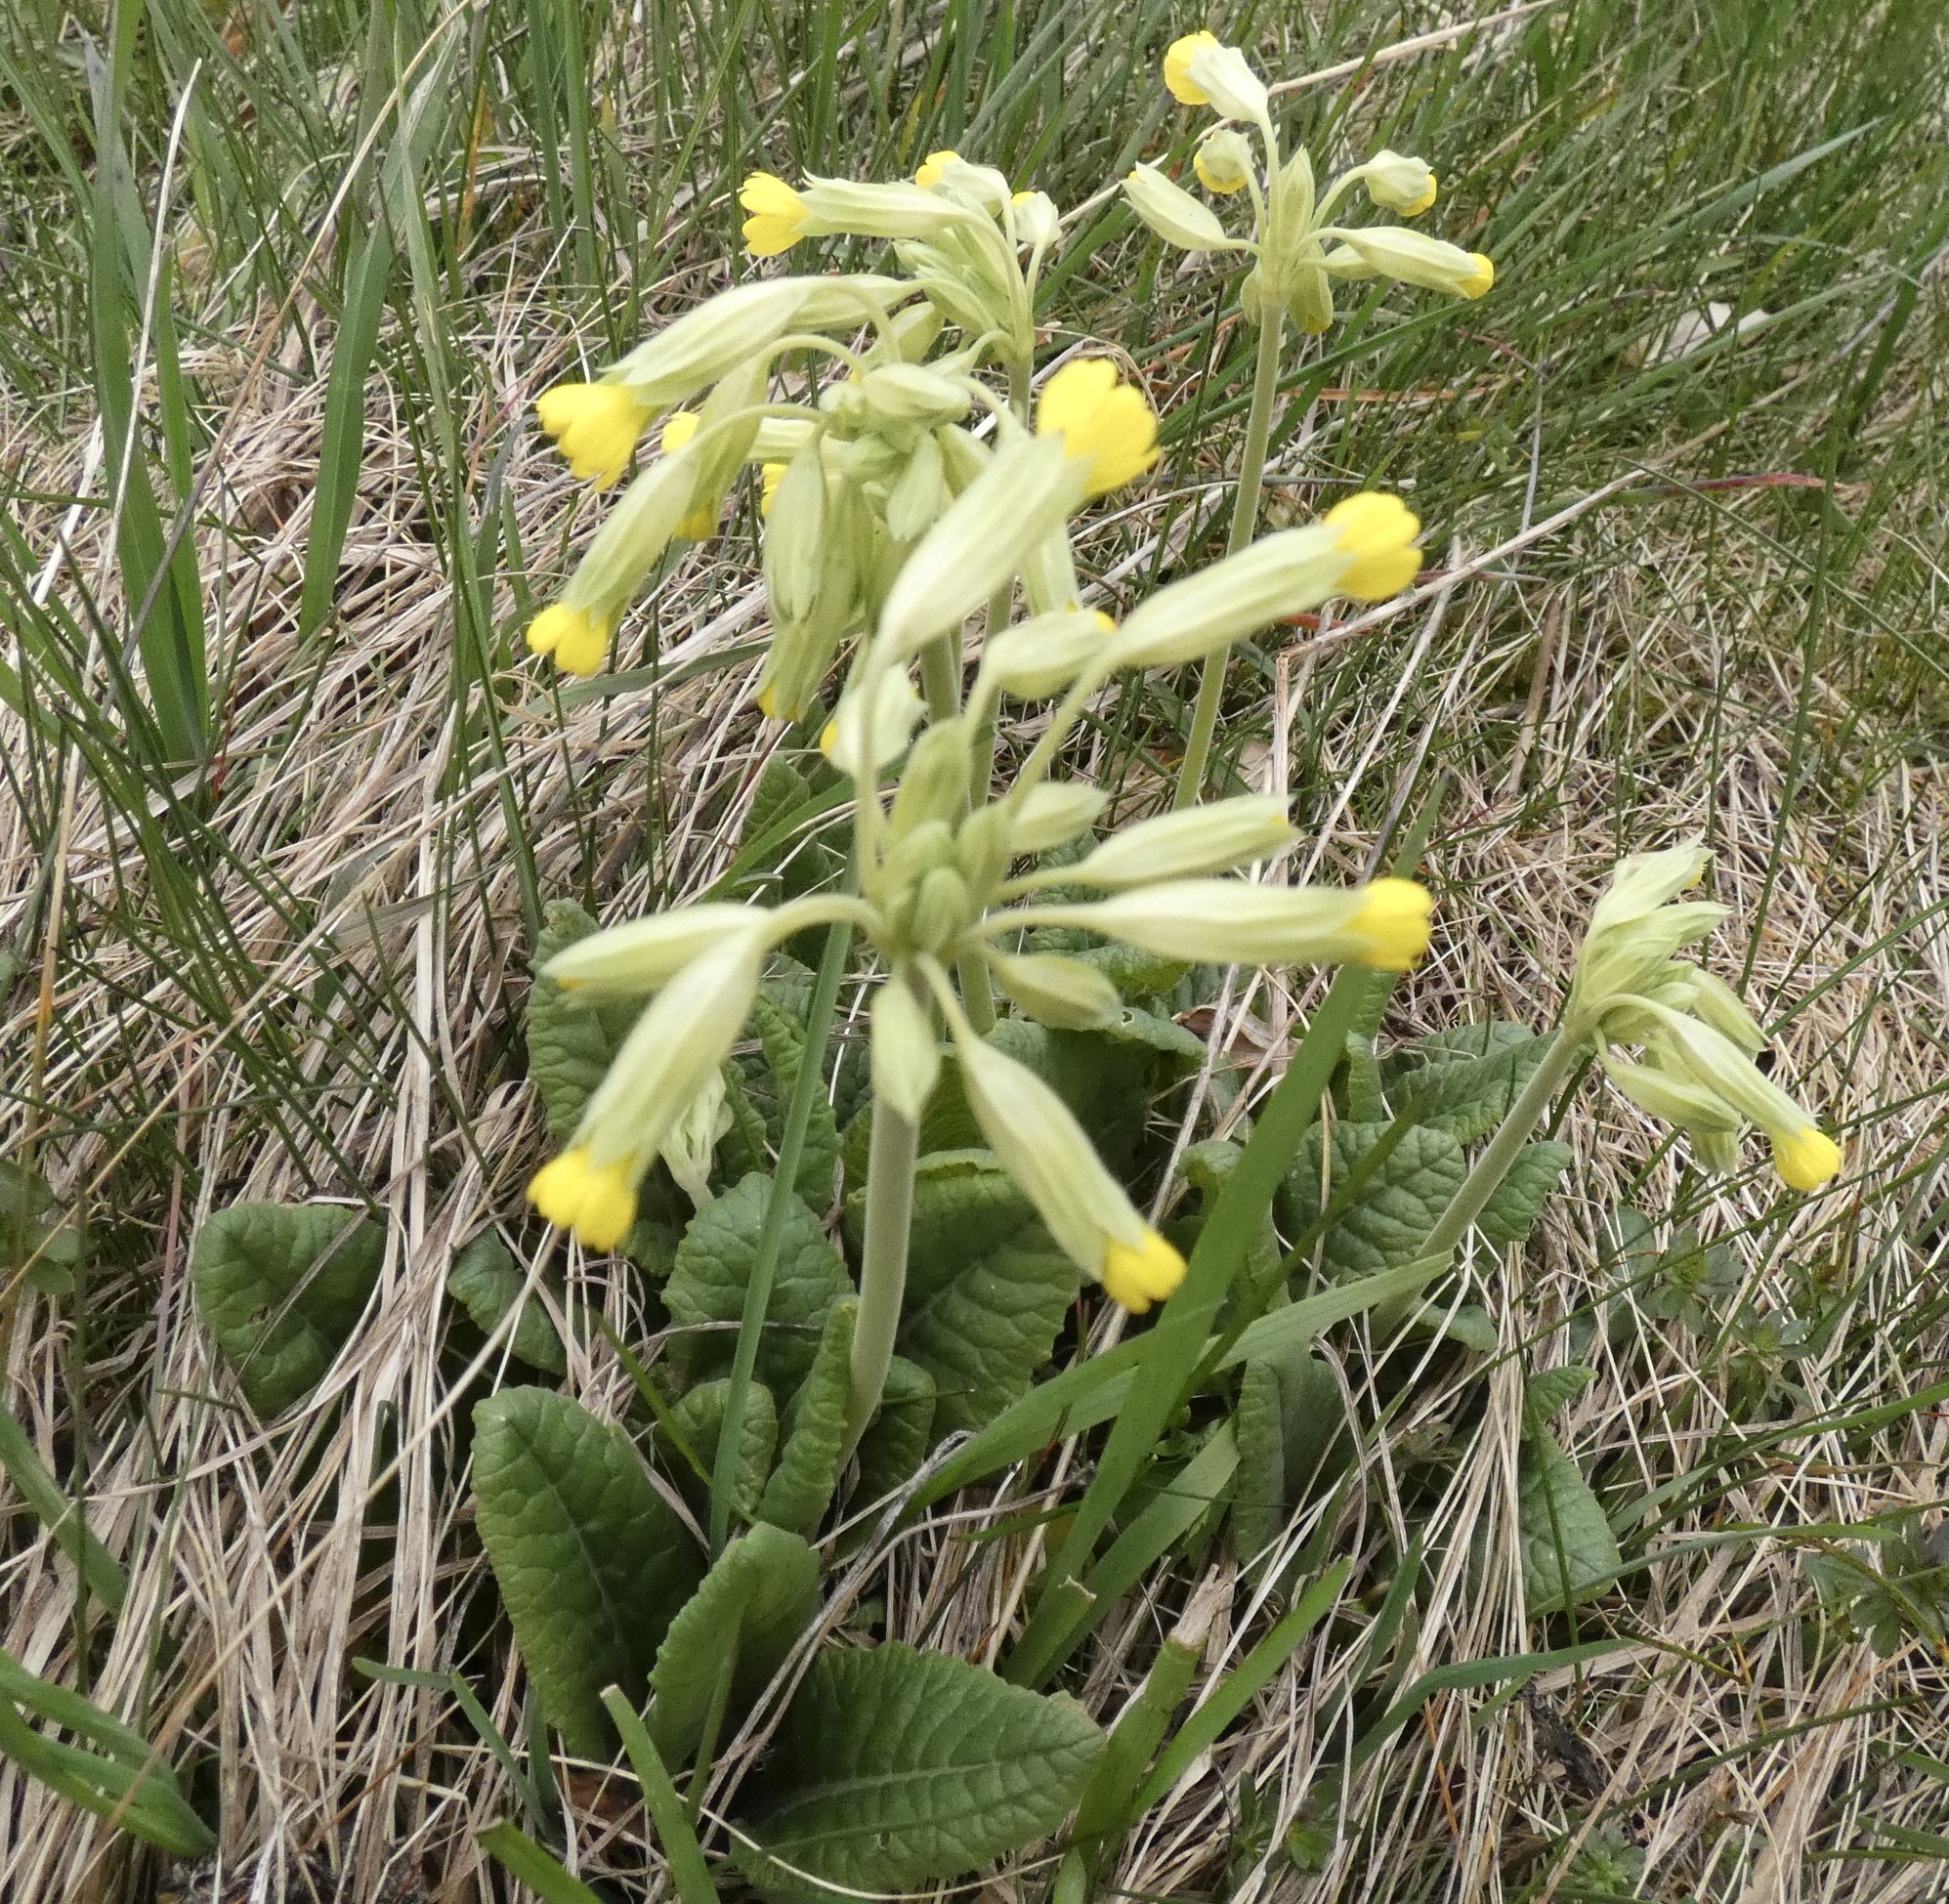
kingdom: Plantae
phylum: Tracheophyta
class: Magnoliopsida
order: Ericales
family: Primulaceae
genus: Primula
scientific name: Primula veris
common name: Cowslip
